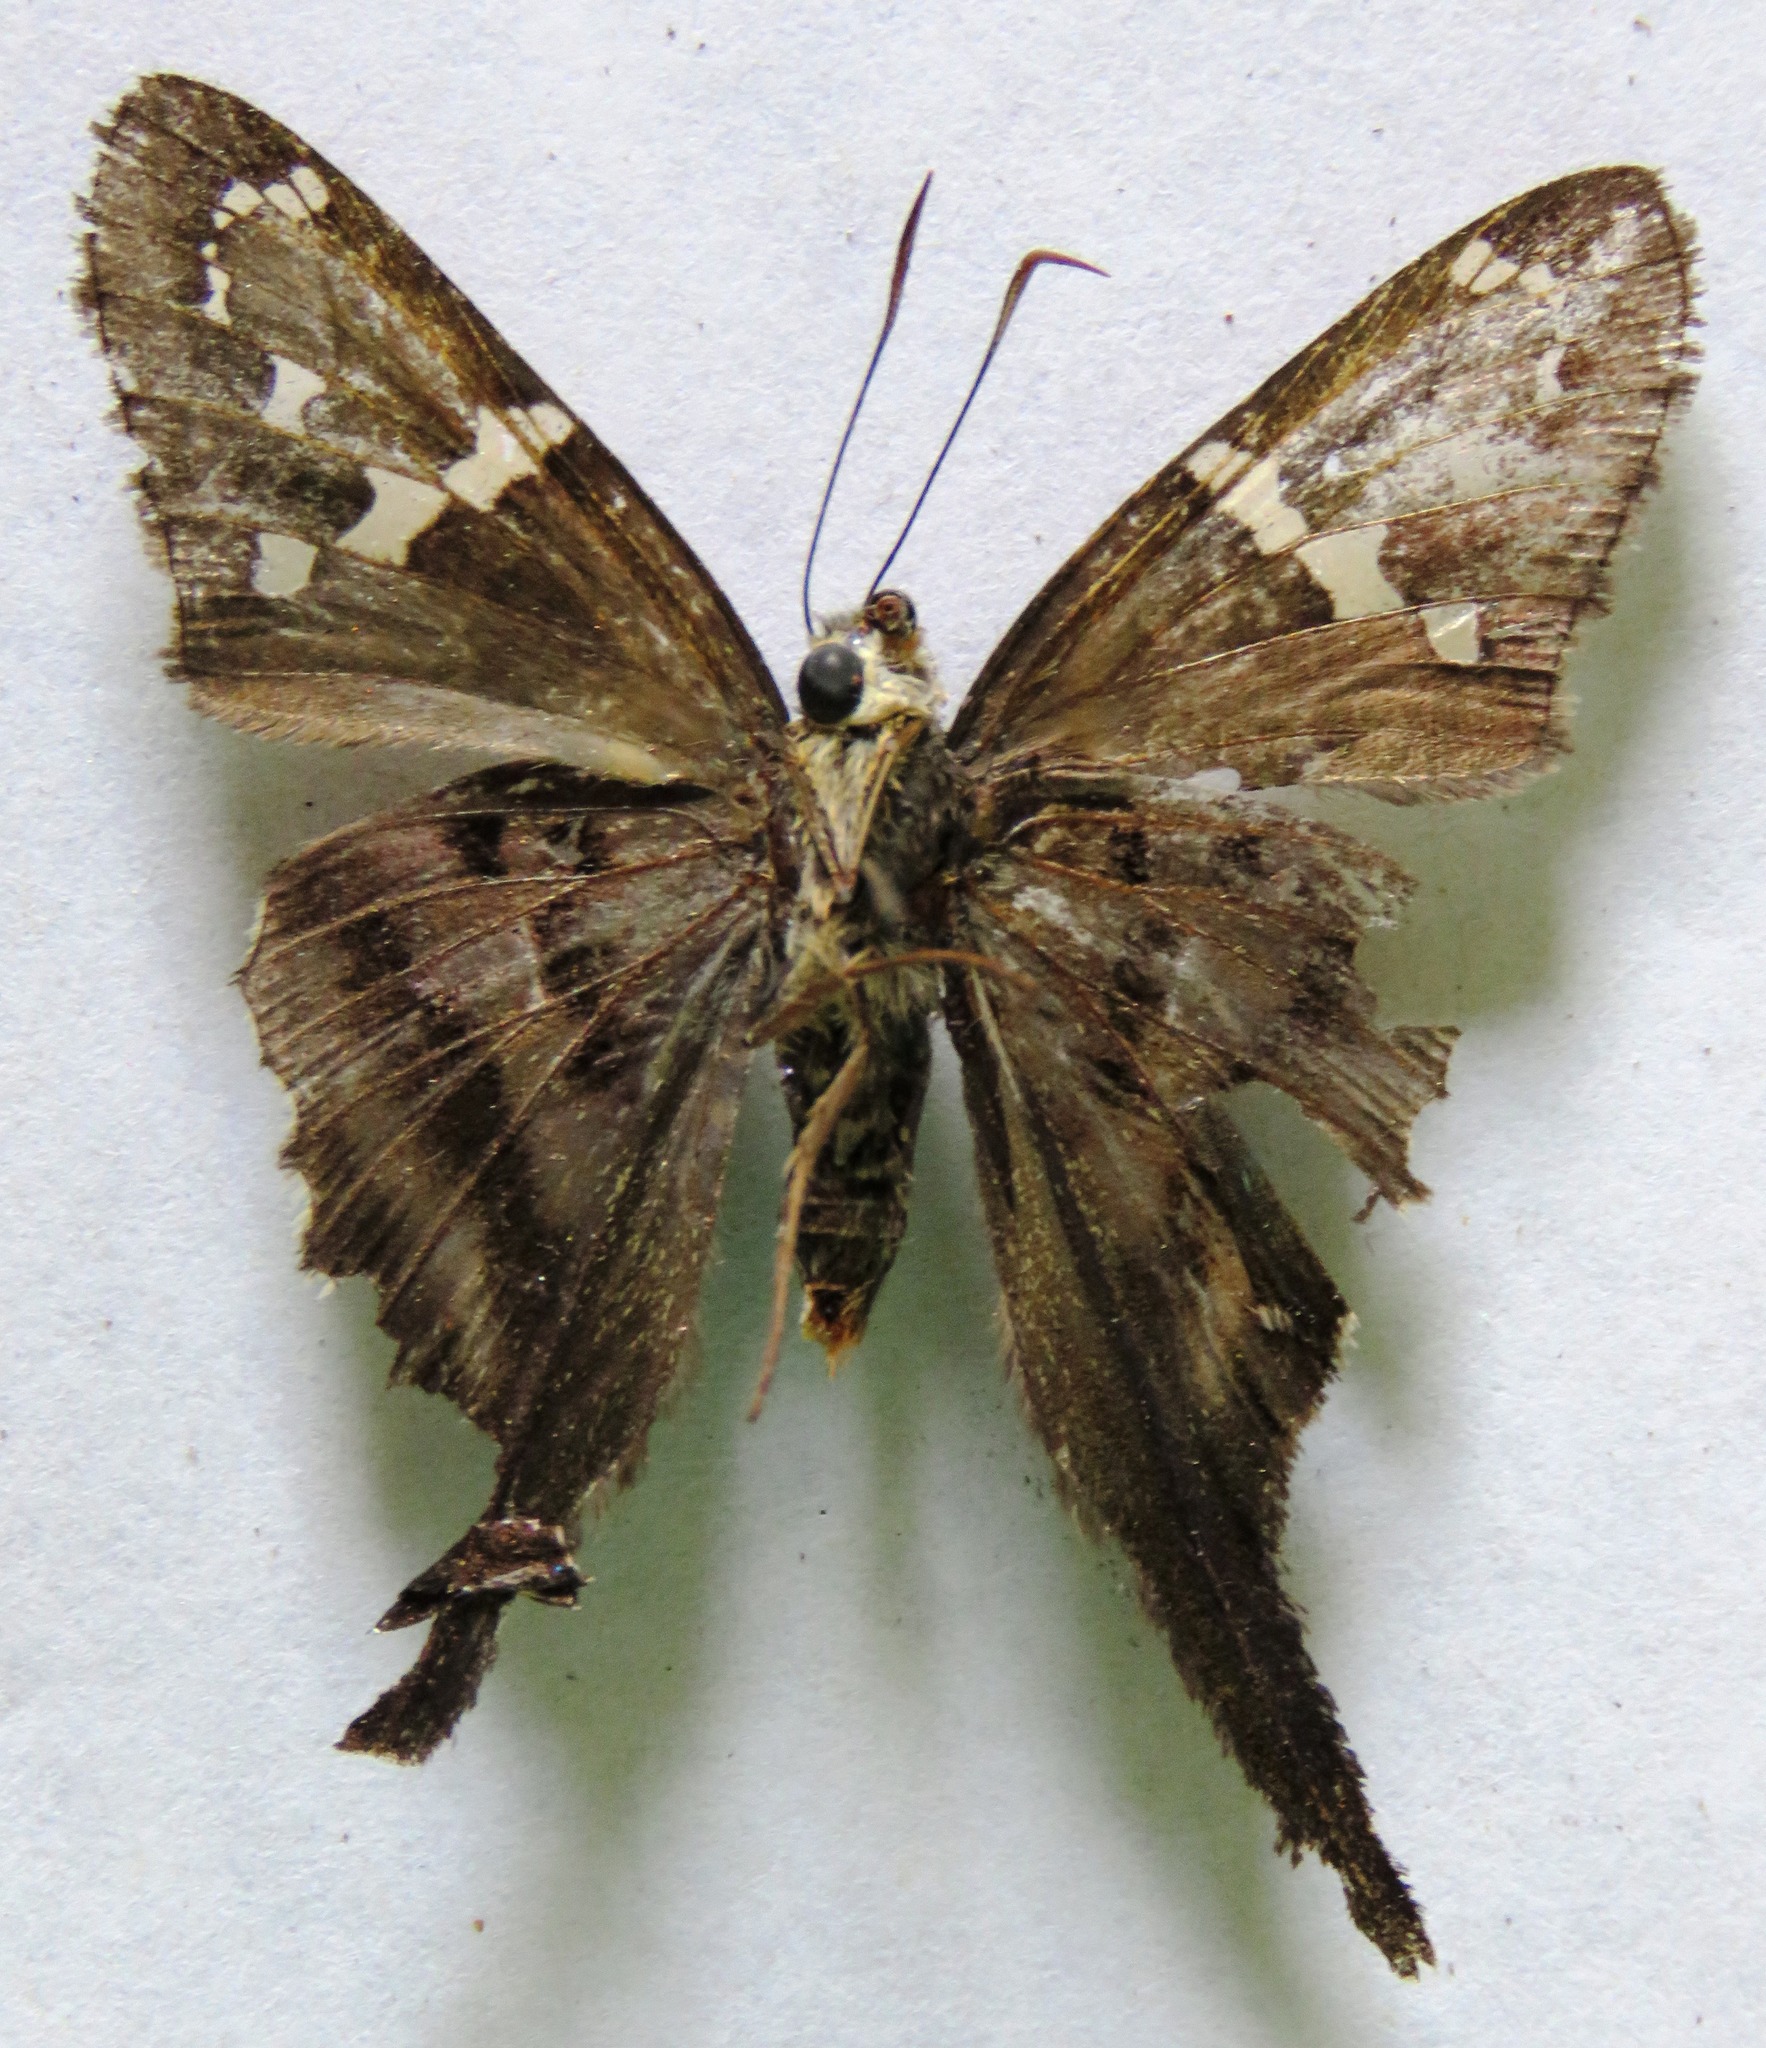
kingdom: Animalia
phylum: Arthropoda
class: Insecta
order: Lepidoptera
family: Hesperiidae
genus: Urbanus
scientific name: Urbanus proteus
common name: Long-tailed skipper
